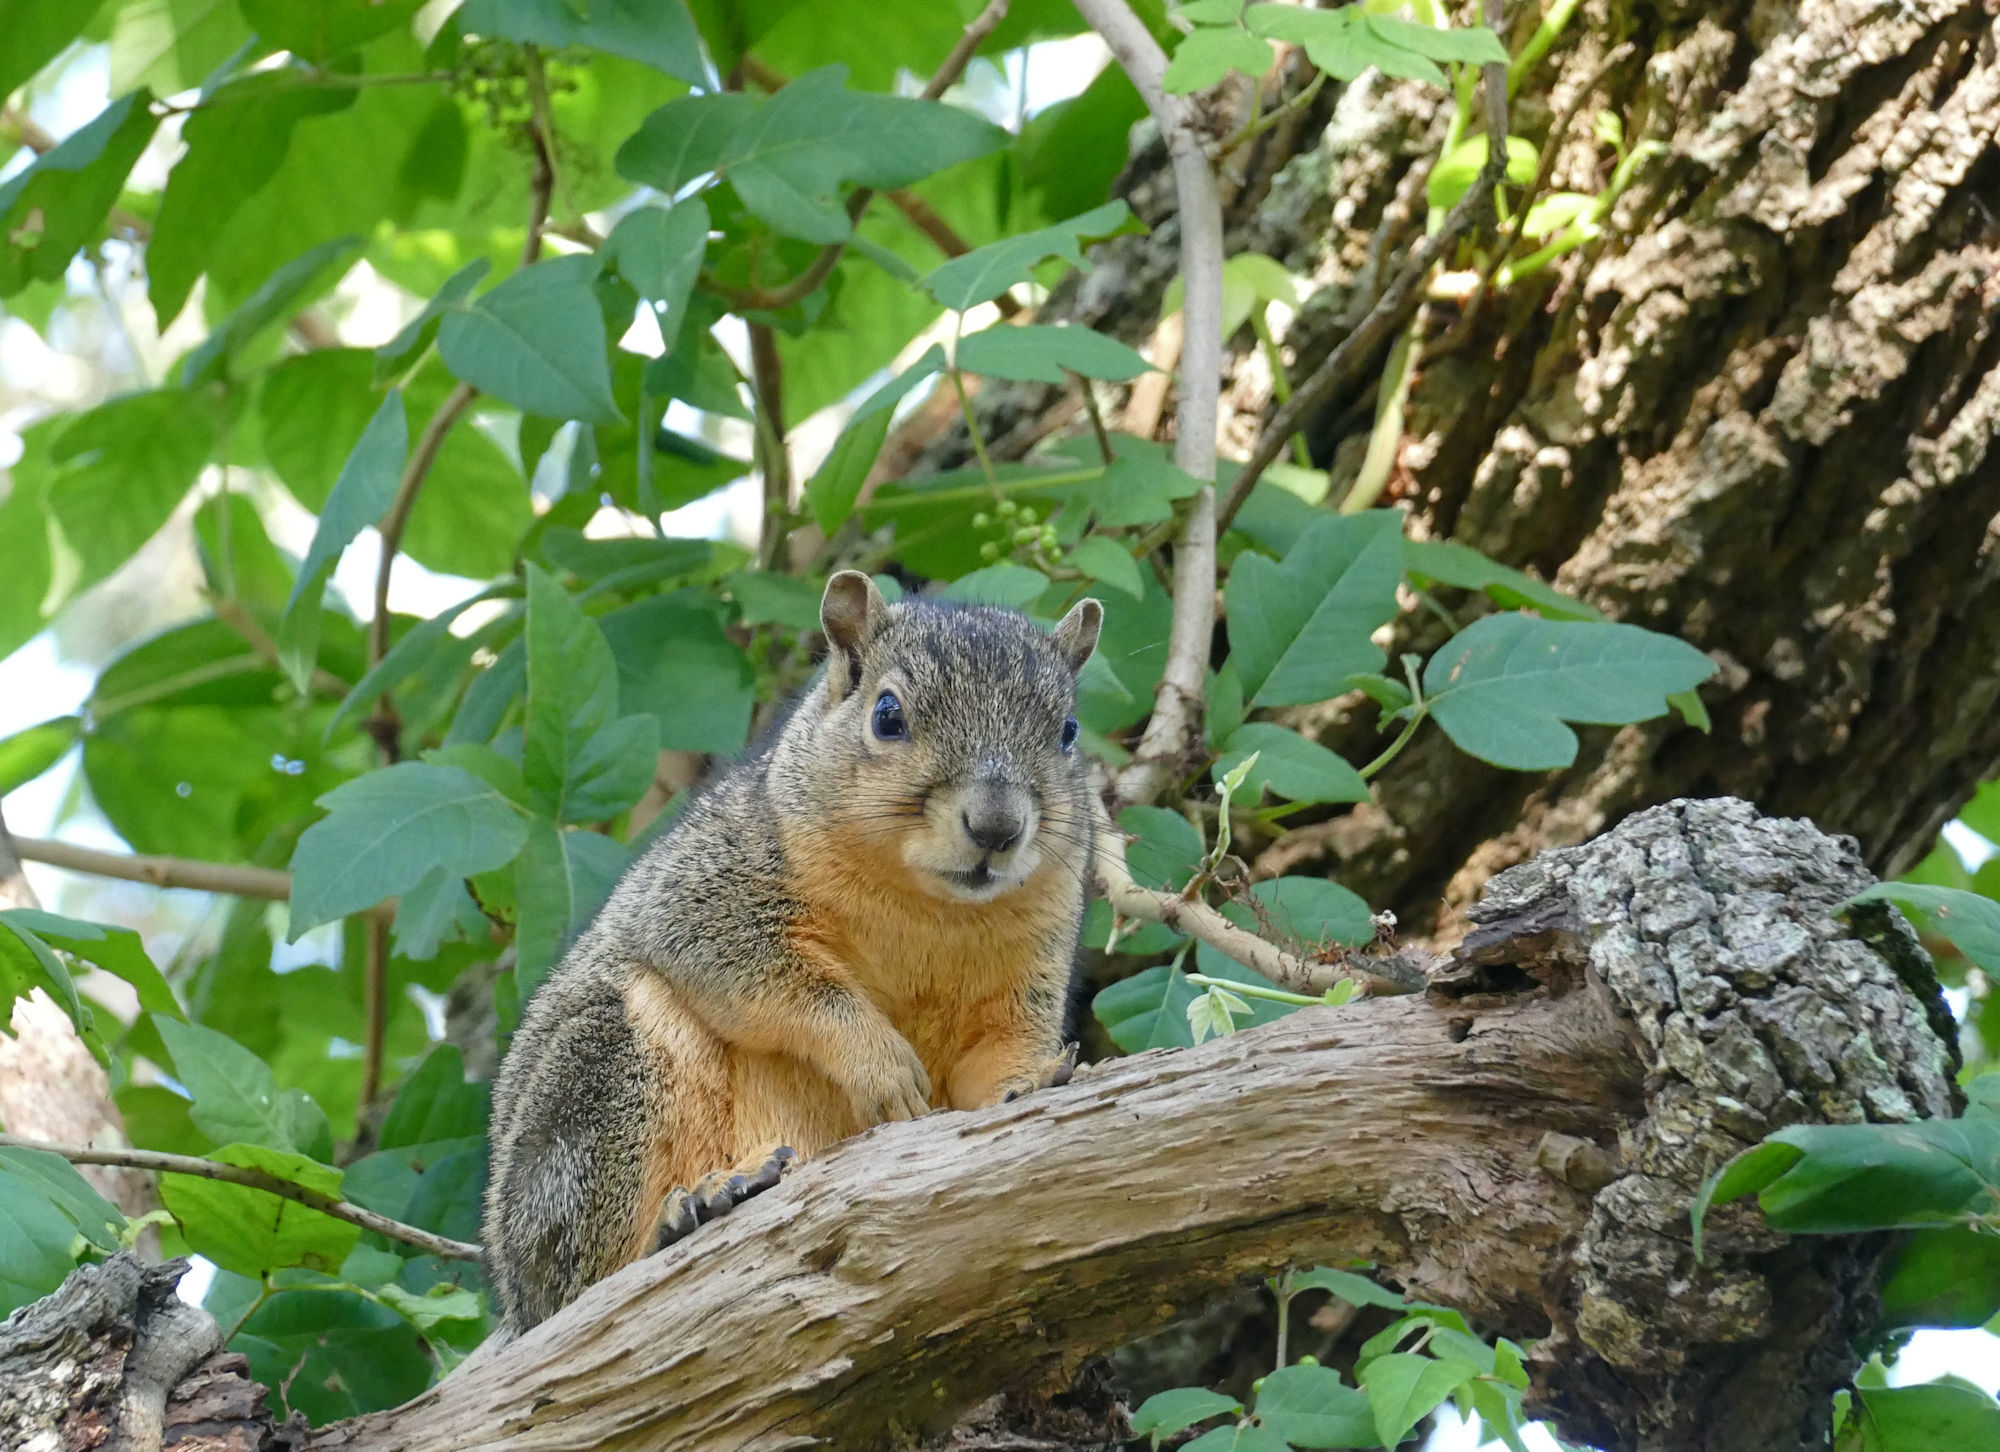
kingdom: Animalia
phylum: Chordata
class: Mammalia
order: Rodentia
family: Sciuridae
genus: Sciurus
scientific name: Sciurus niger
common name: Fox squirrel
